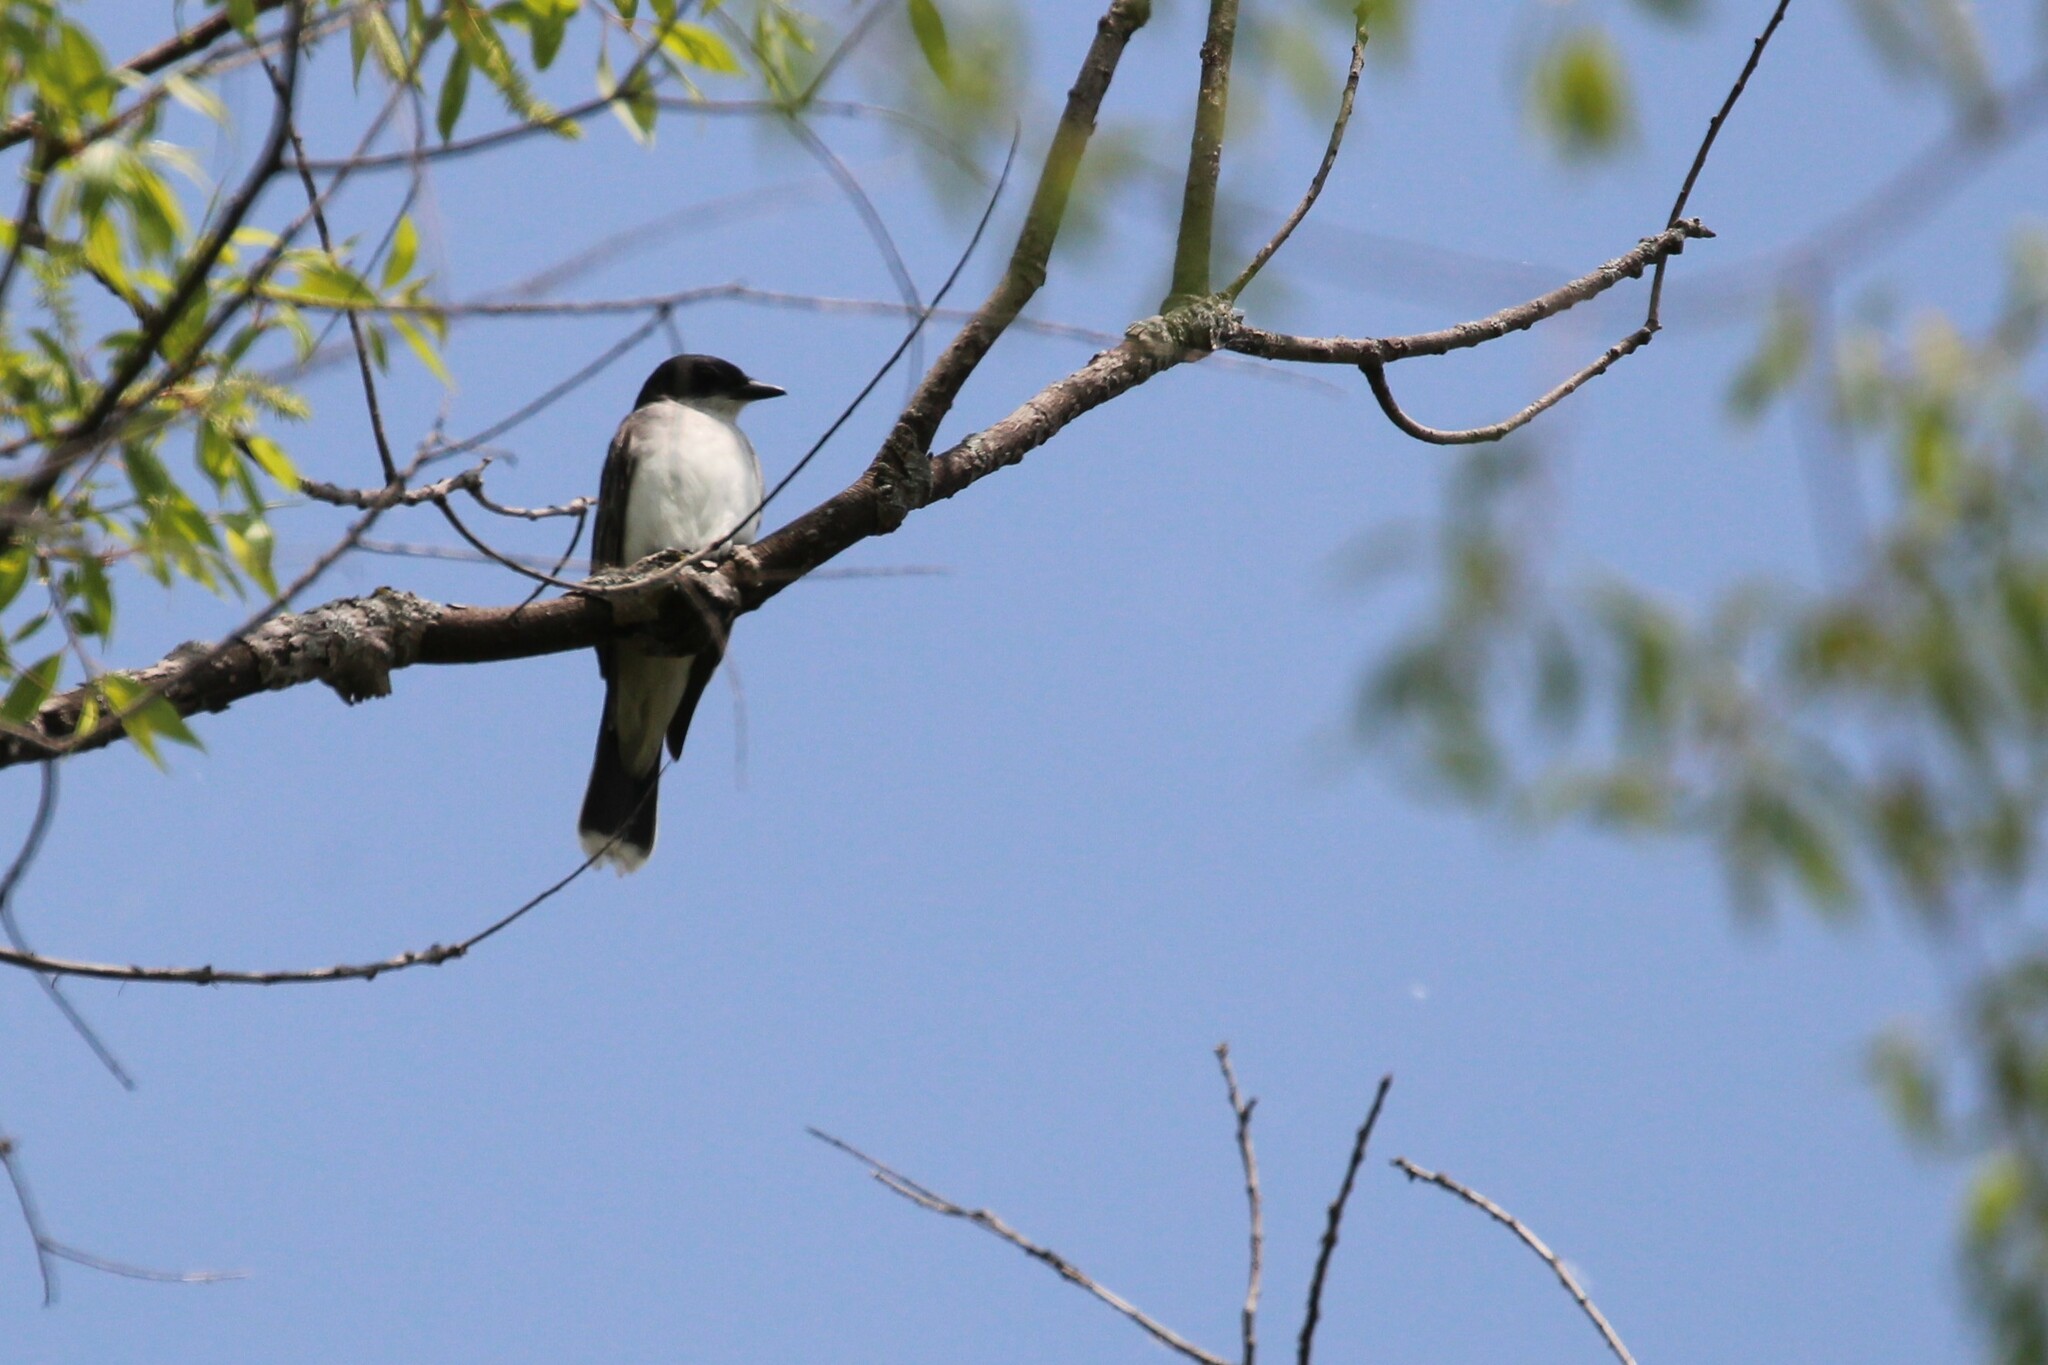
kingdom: Animalia
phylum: Chordata
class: Aves
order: Passeriformes
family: Tyrannidae
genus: Tyrannus
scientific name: Tyrannus tyrannus
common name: Eastern kingbird
